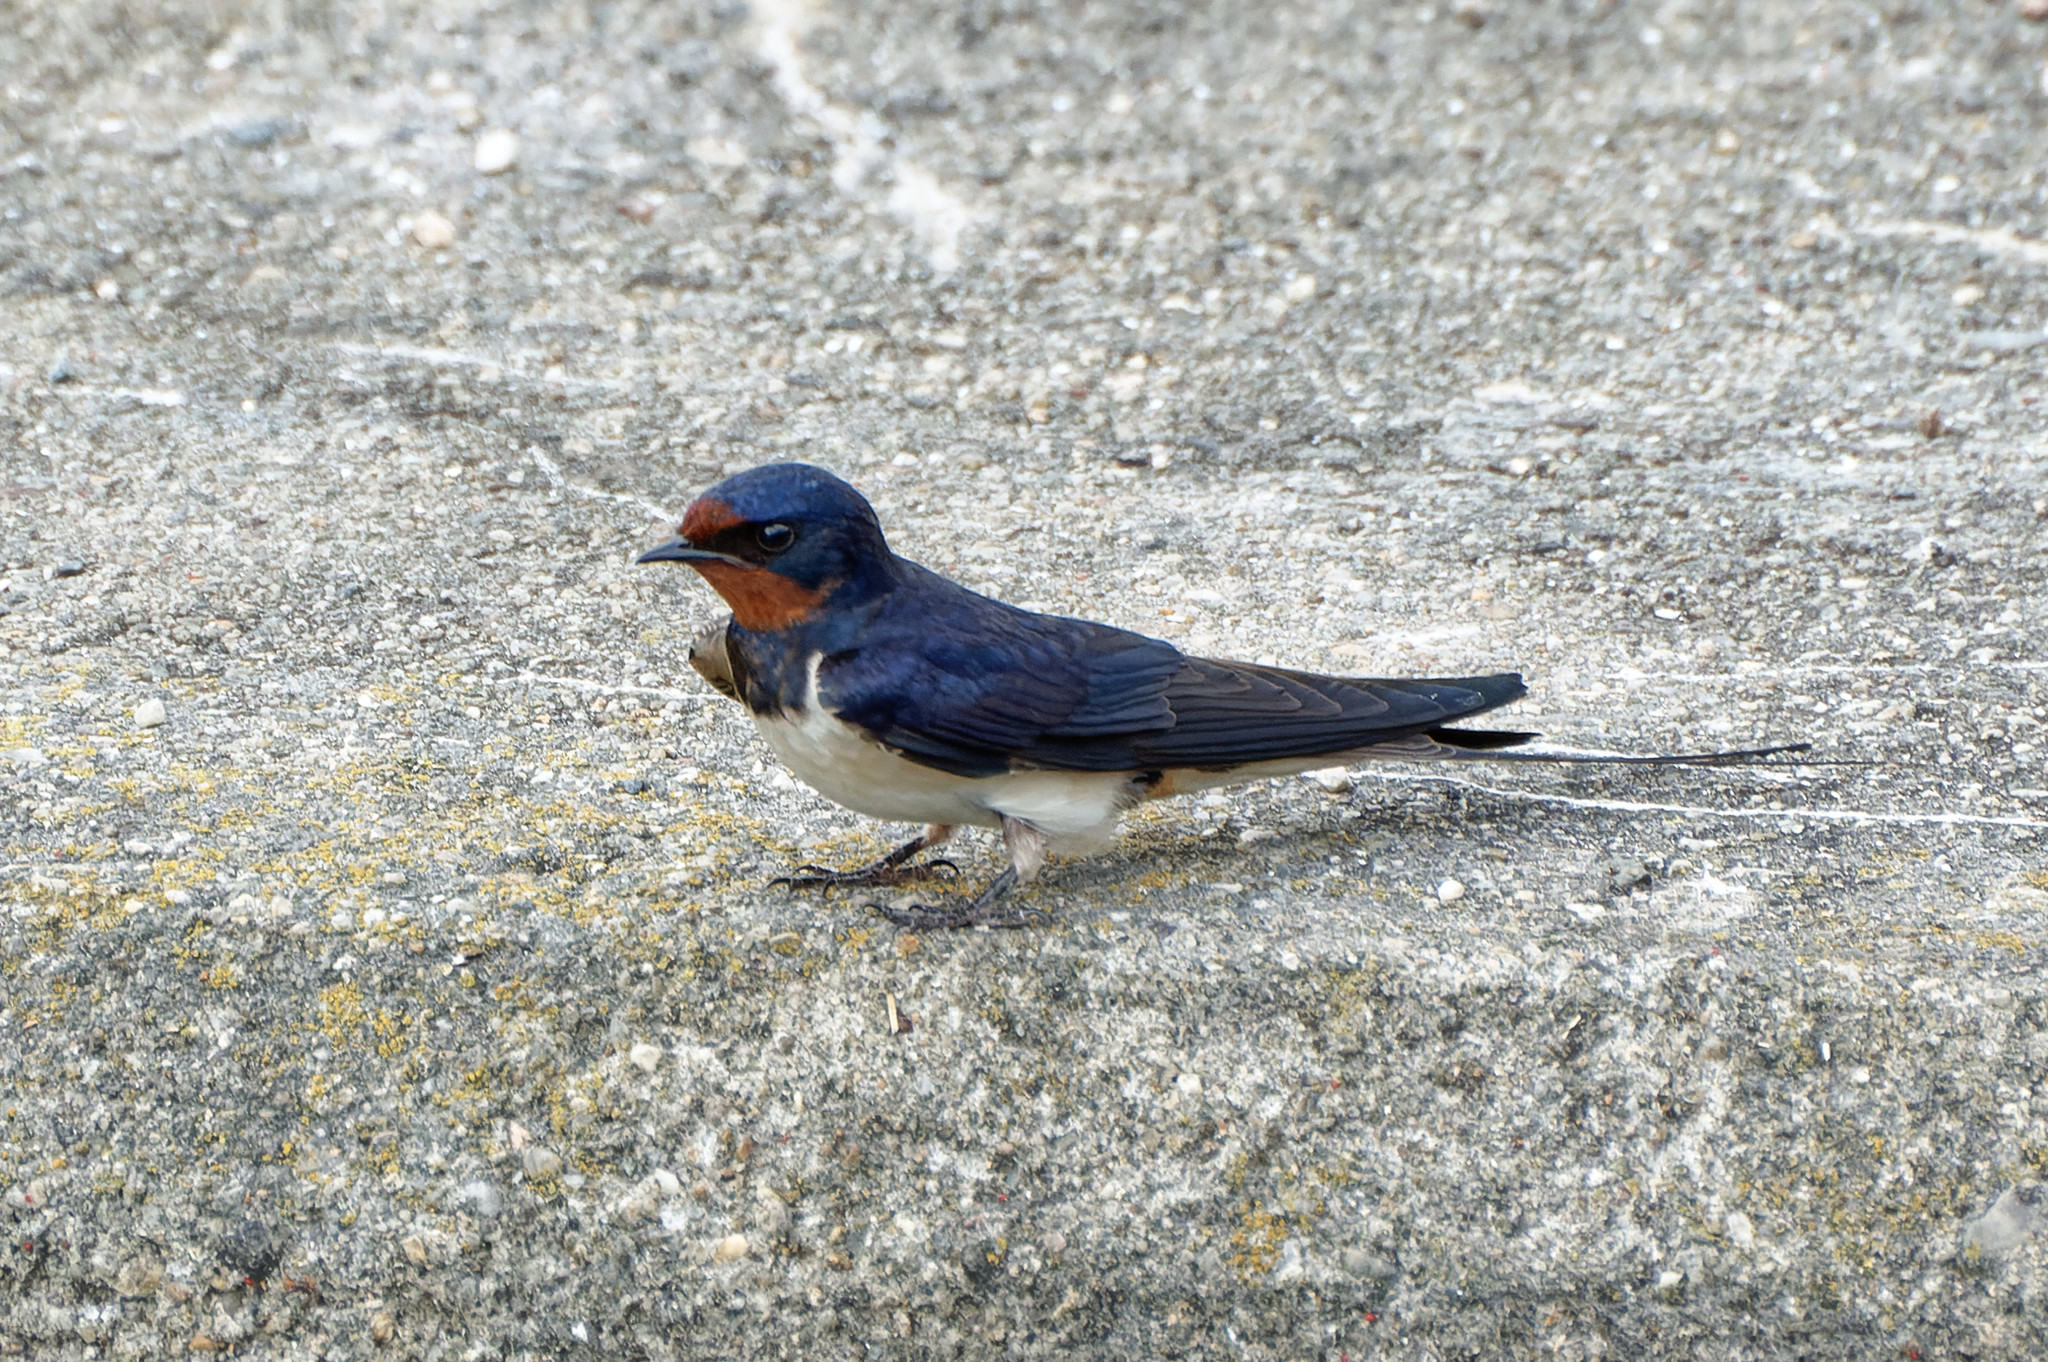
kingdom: Animalia
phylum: Chordata
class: Aves
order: Passeriformes
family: Hirundinidae
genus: Hirundo
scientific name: Hirundo rustica
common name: Barn swallow
